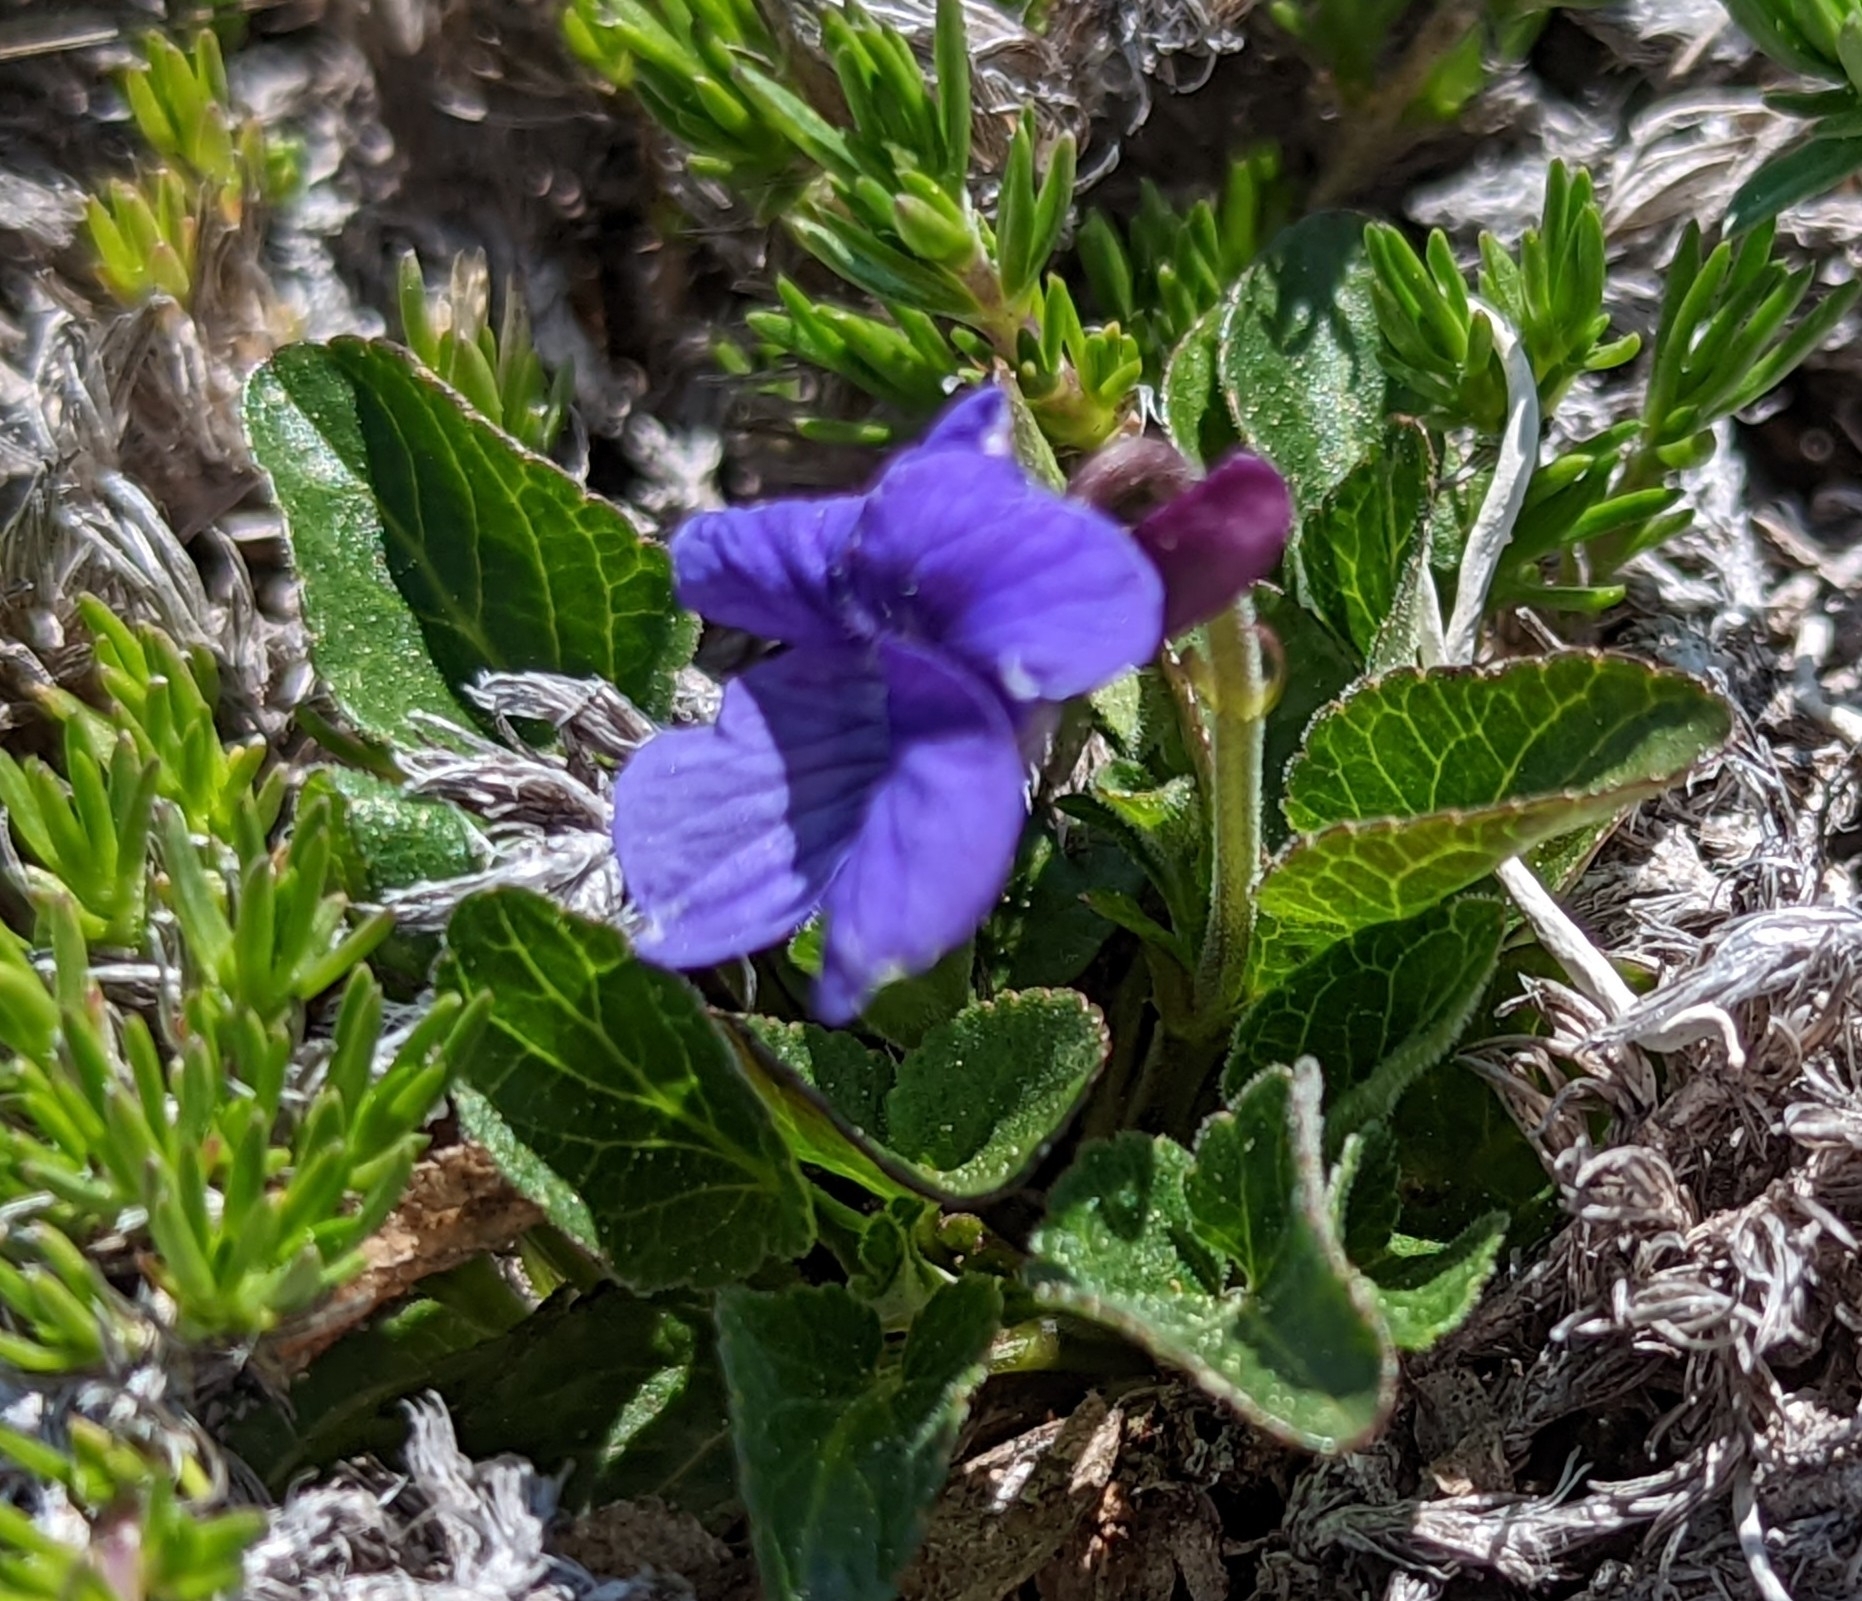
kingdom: Plantae
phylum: Tracheophyta
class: Magnoliopsida
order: Malpighiales
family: Violaceae
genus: Viola
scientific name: Viola adunca
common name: Sand violet
